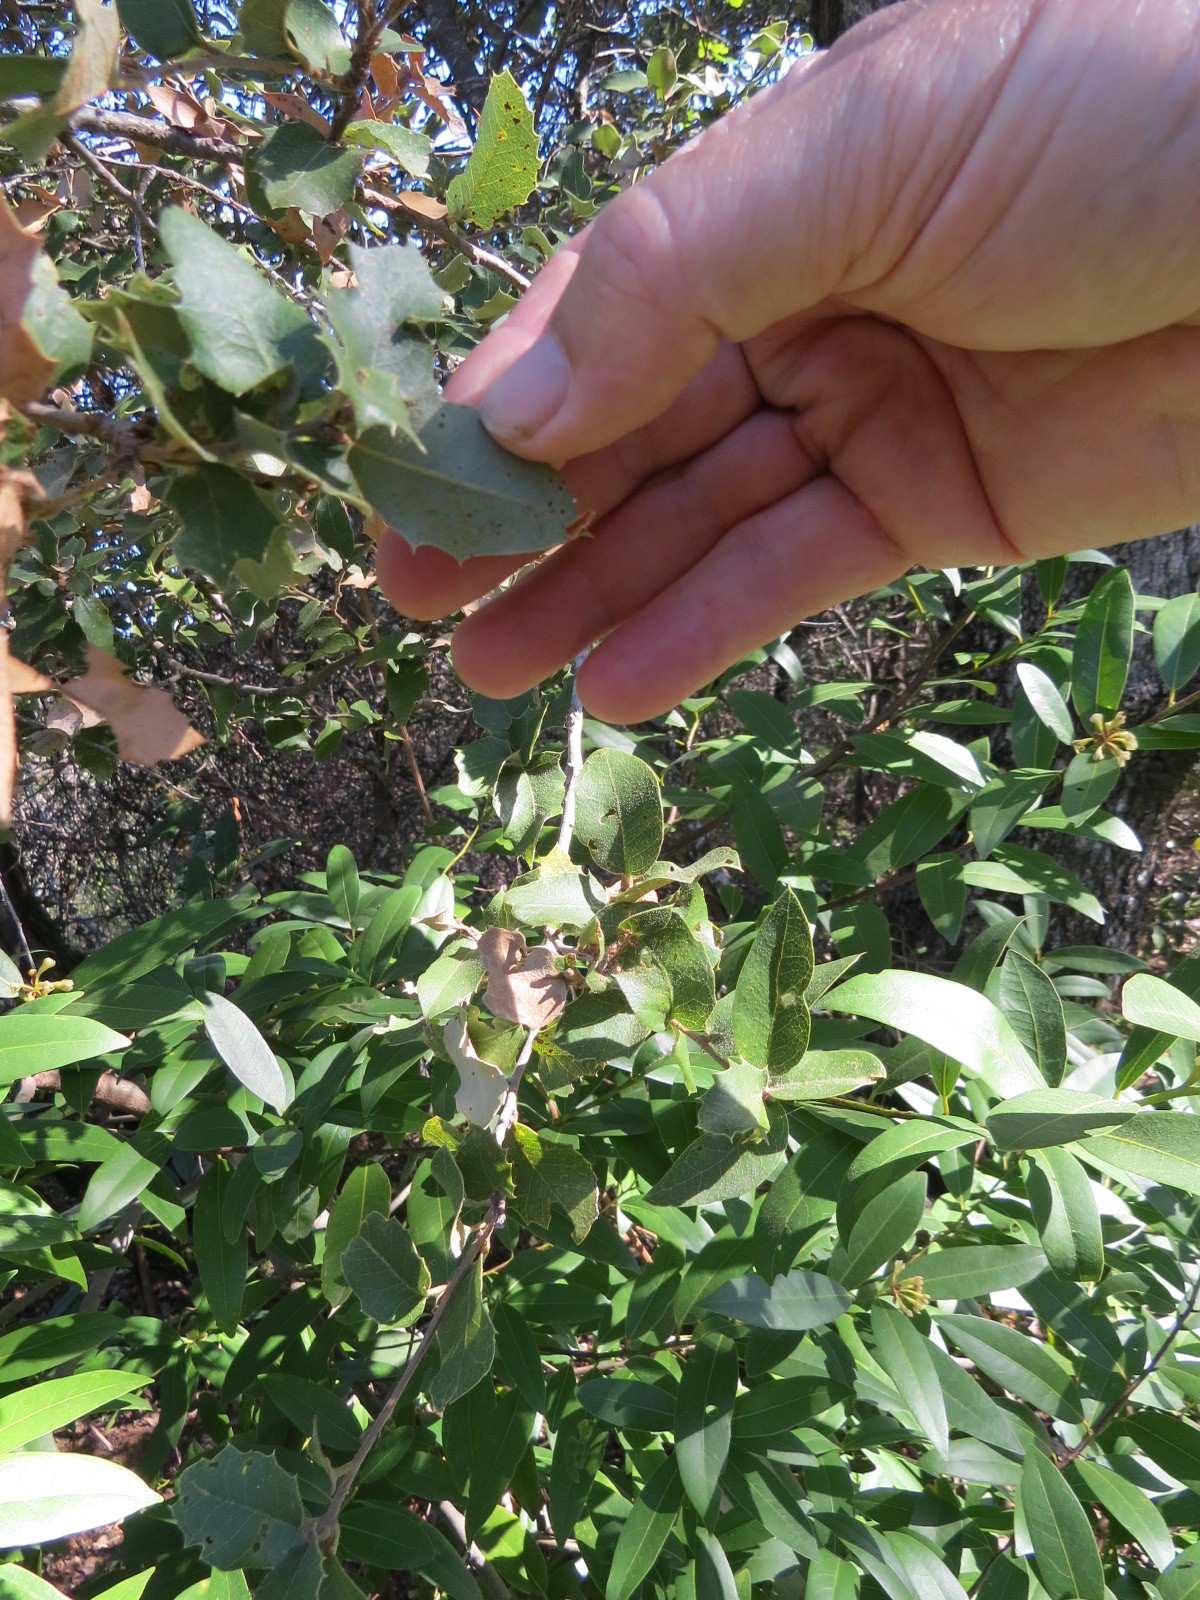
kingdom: Plantae
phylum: Tracheophyta
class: Magnoliopsida
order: Fagales
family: Fagaceae
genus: Quercus
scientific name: Quercus chrysolepis
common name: Canyon live oak
